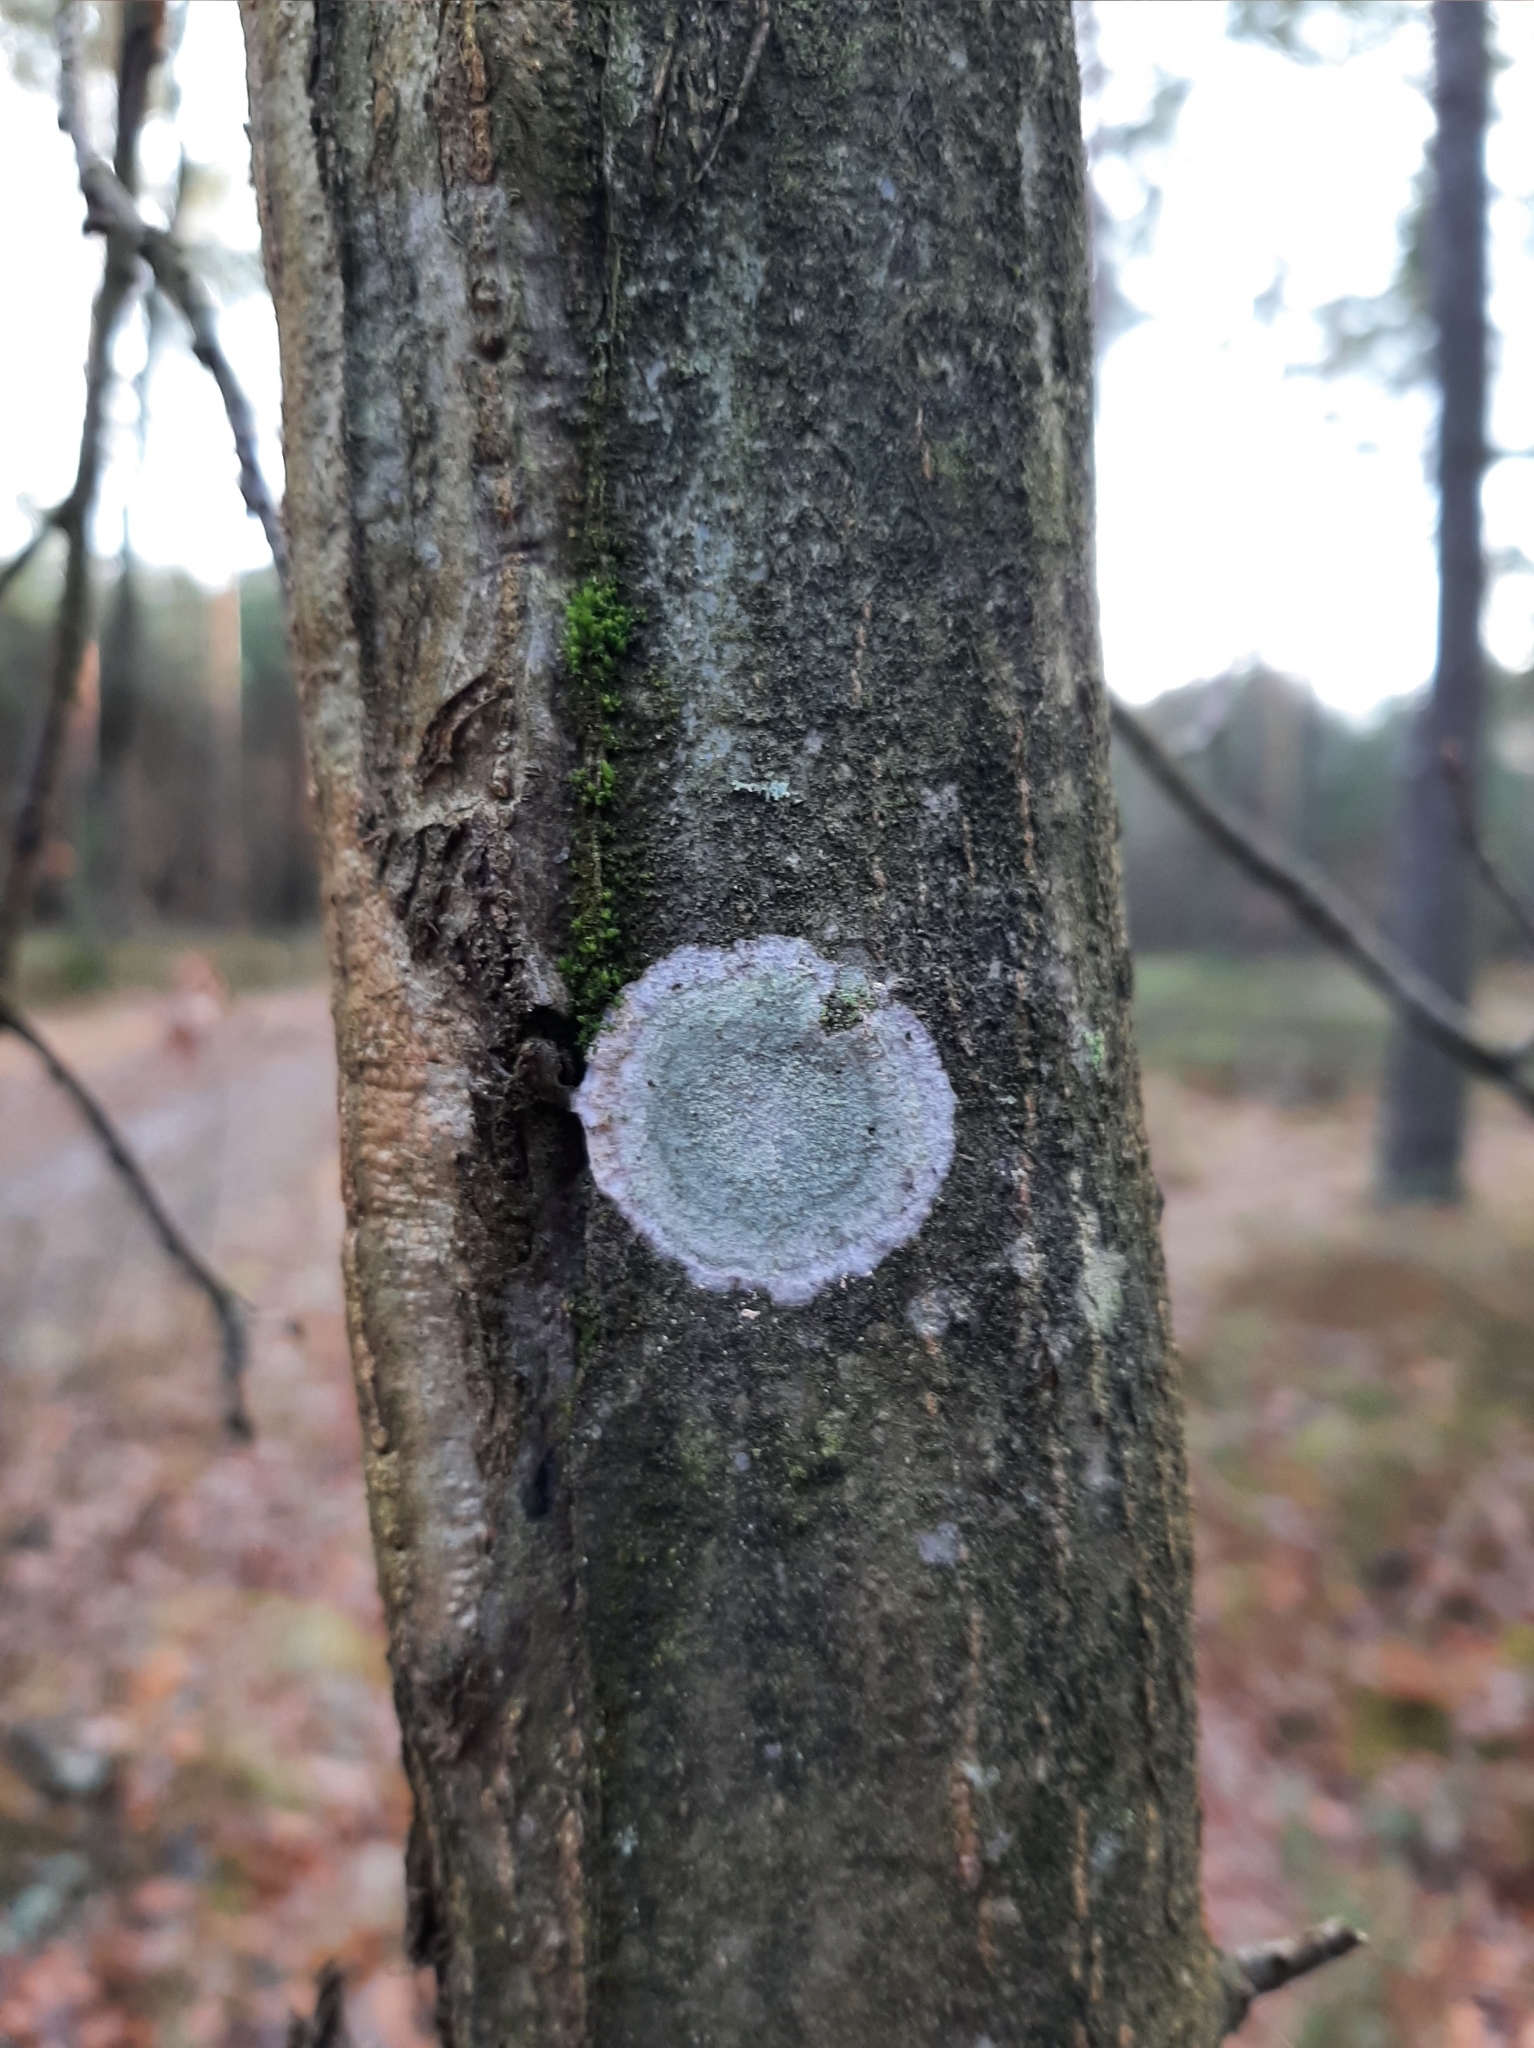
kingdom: Fungi
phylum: Ascomycota
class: Lecanoromycetes
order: Ostropales
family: Phlyctidaceae
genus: Phlyctis
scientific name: Phlyctis argena
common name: Whitewash lichen
